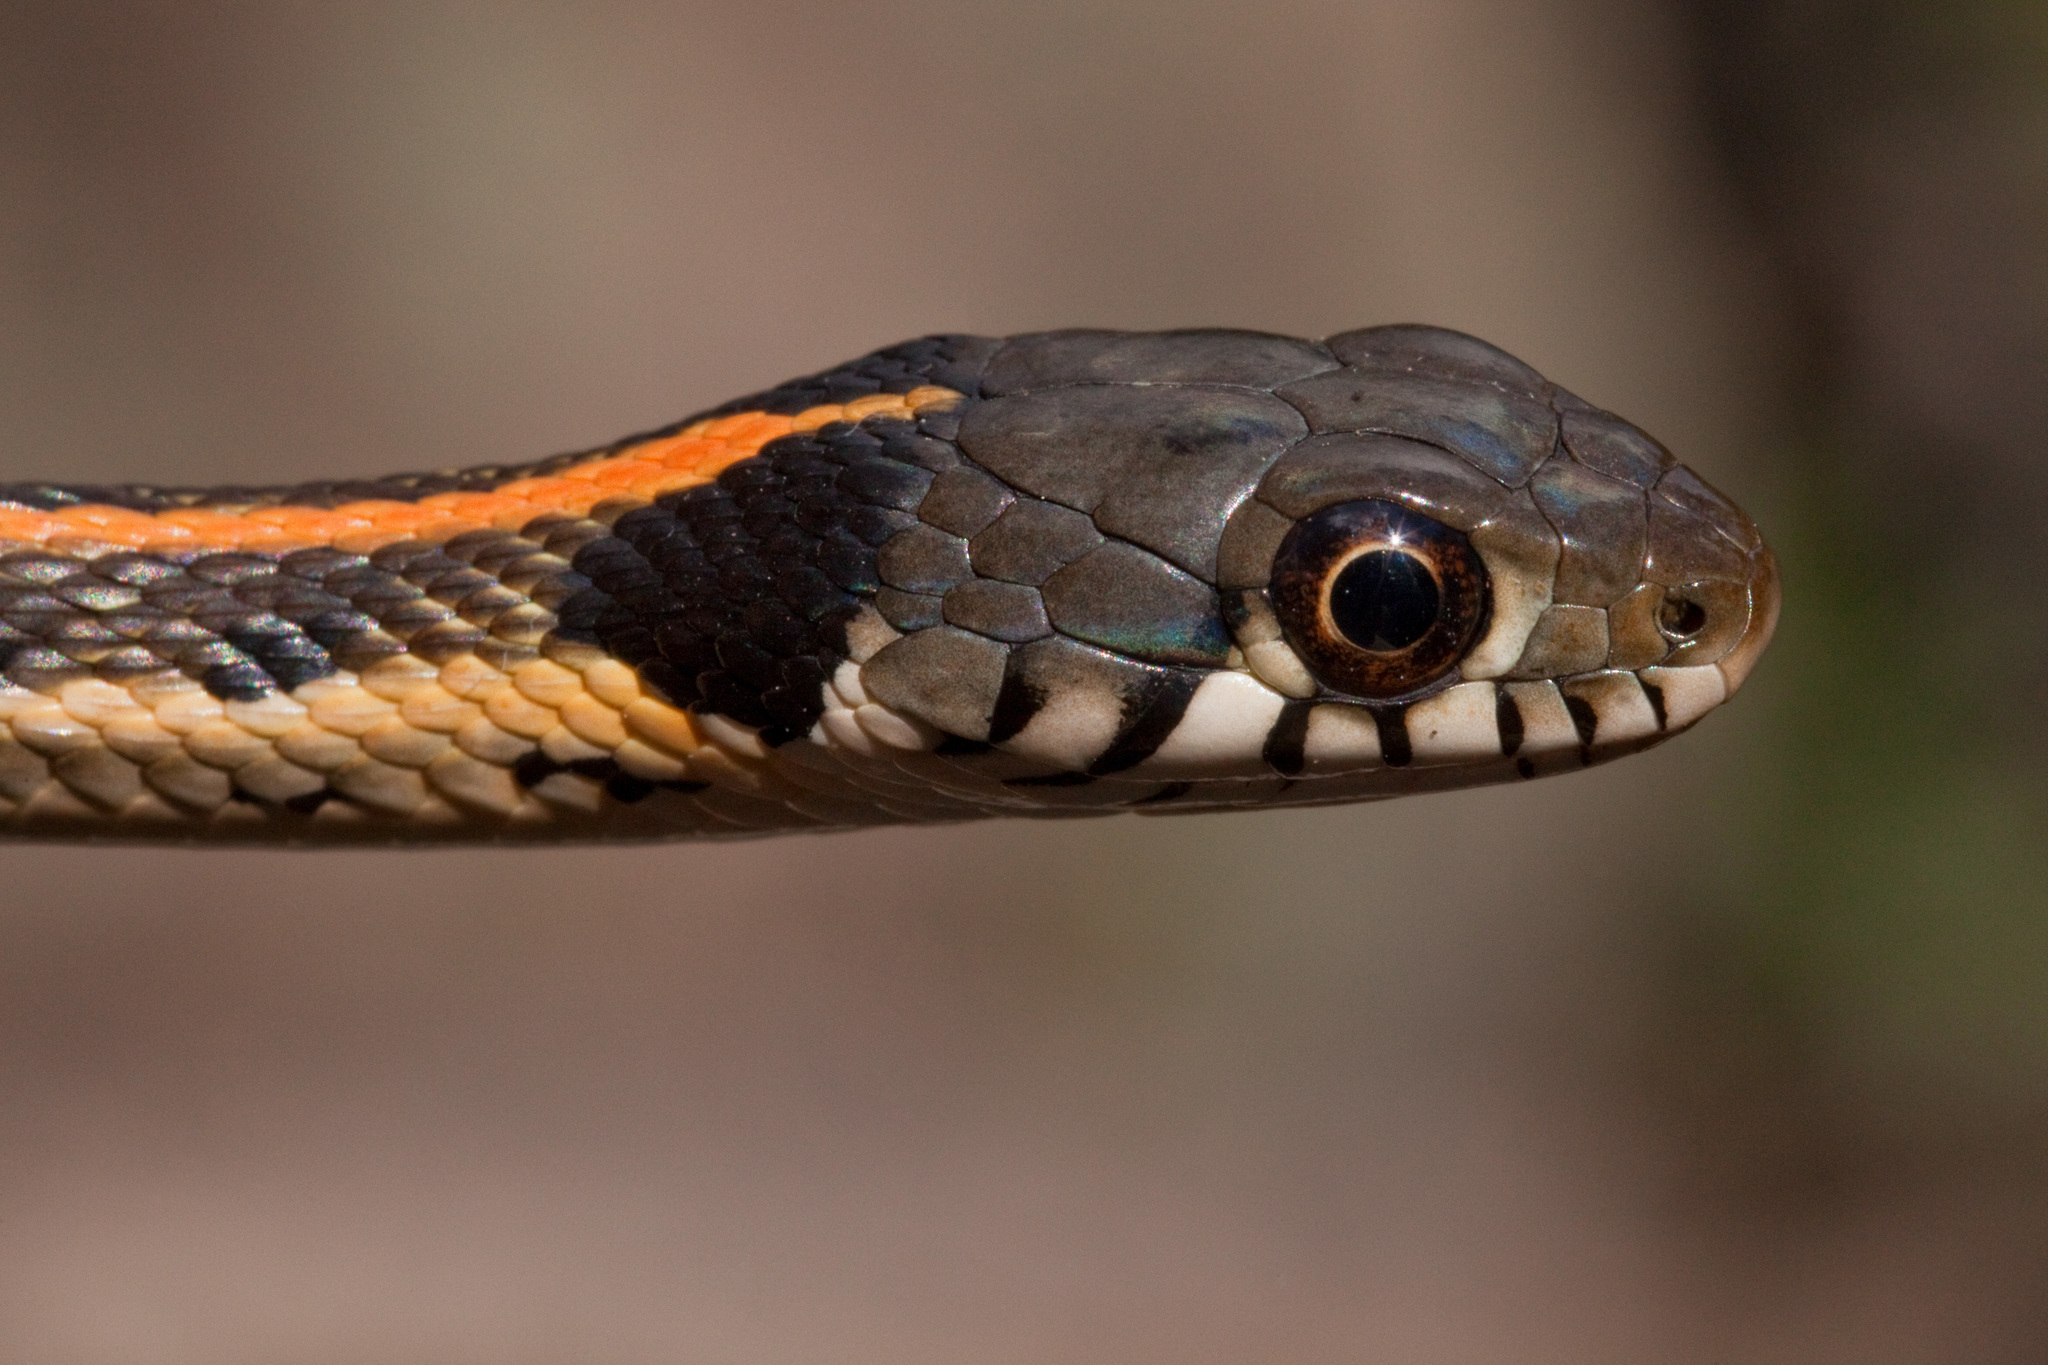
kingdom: Animalia
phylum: Chordata
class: Squamata
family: Colubridae
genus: Thamnophis
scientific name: Thamnophis cyrtopsis
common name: Black-necked gartersnake
